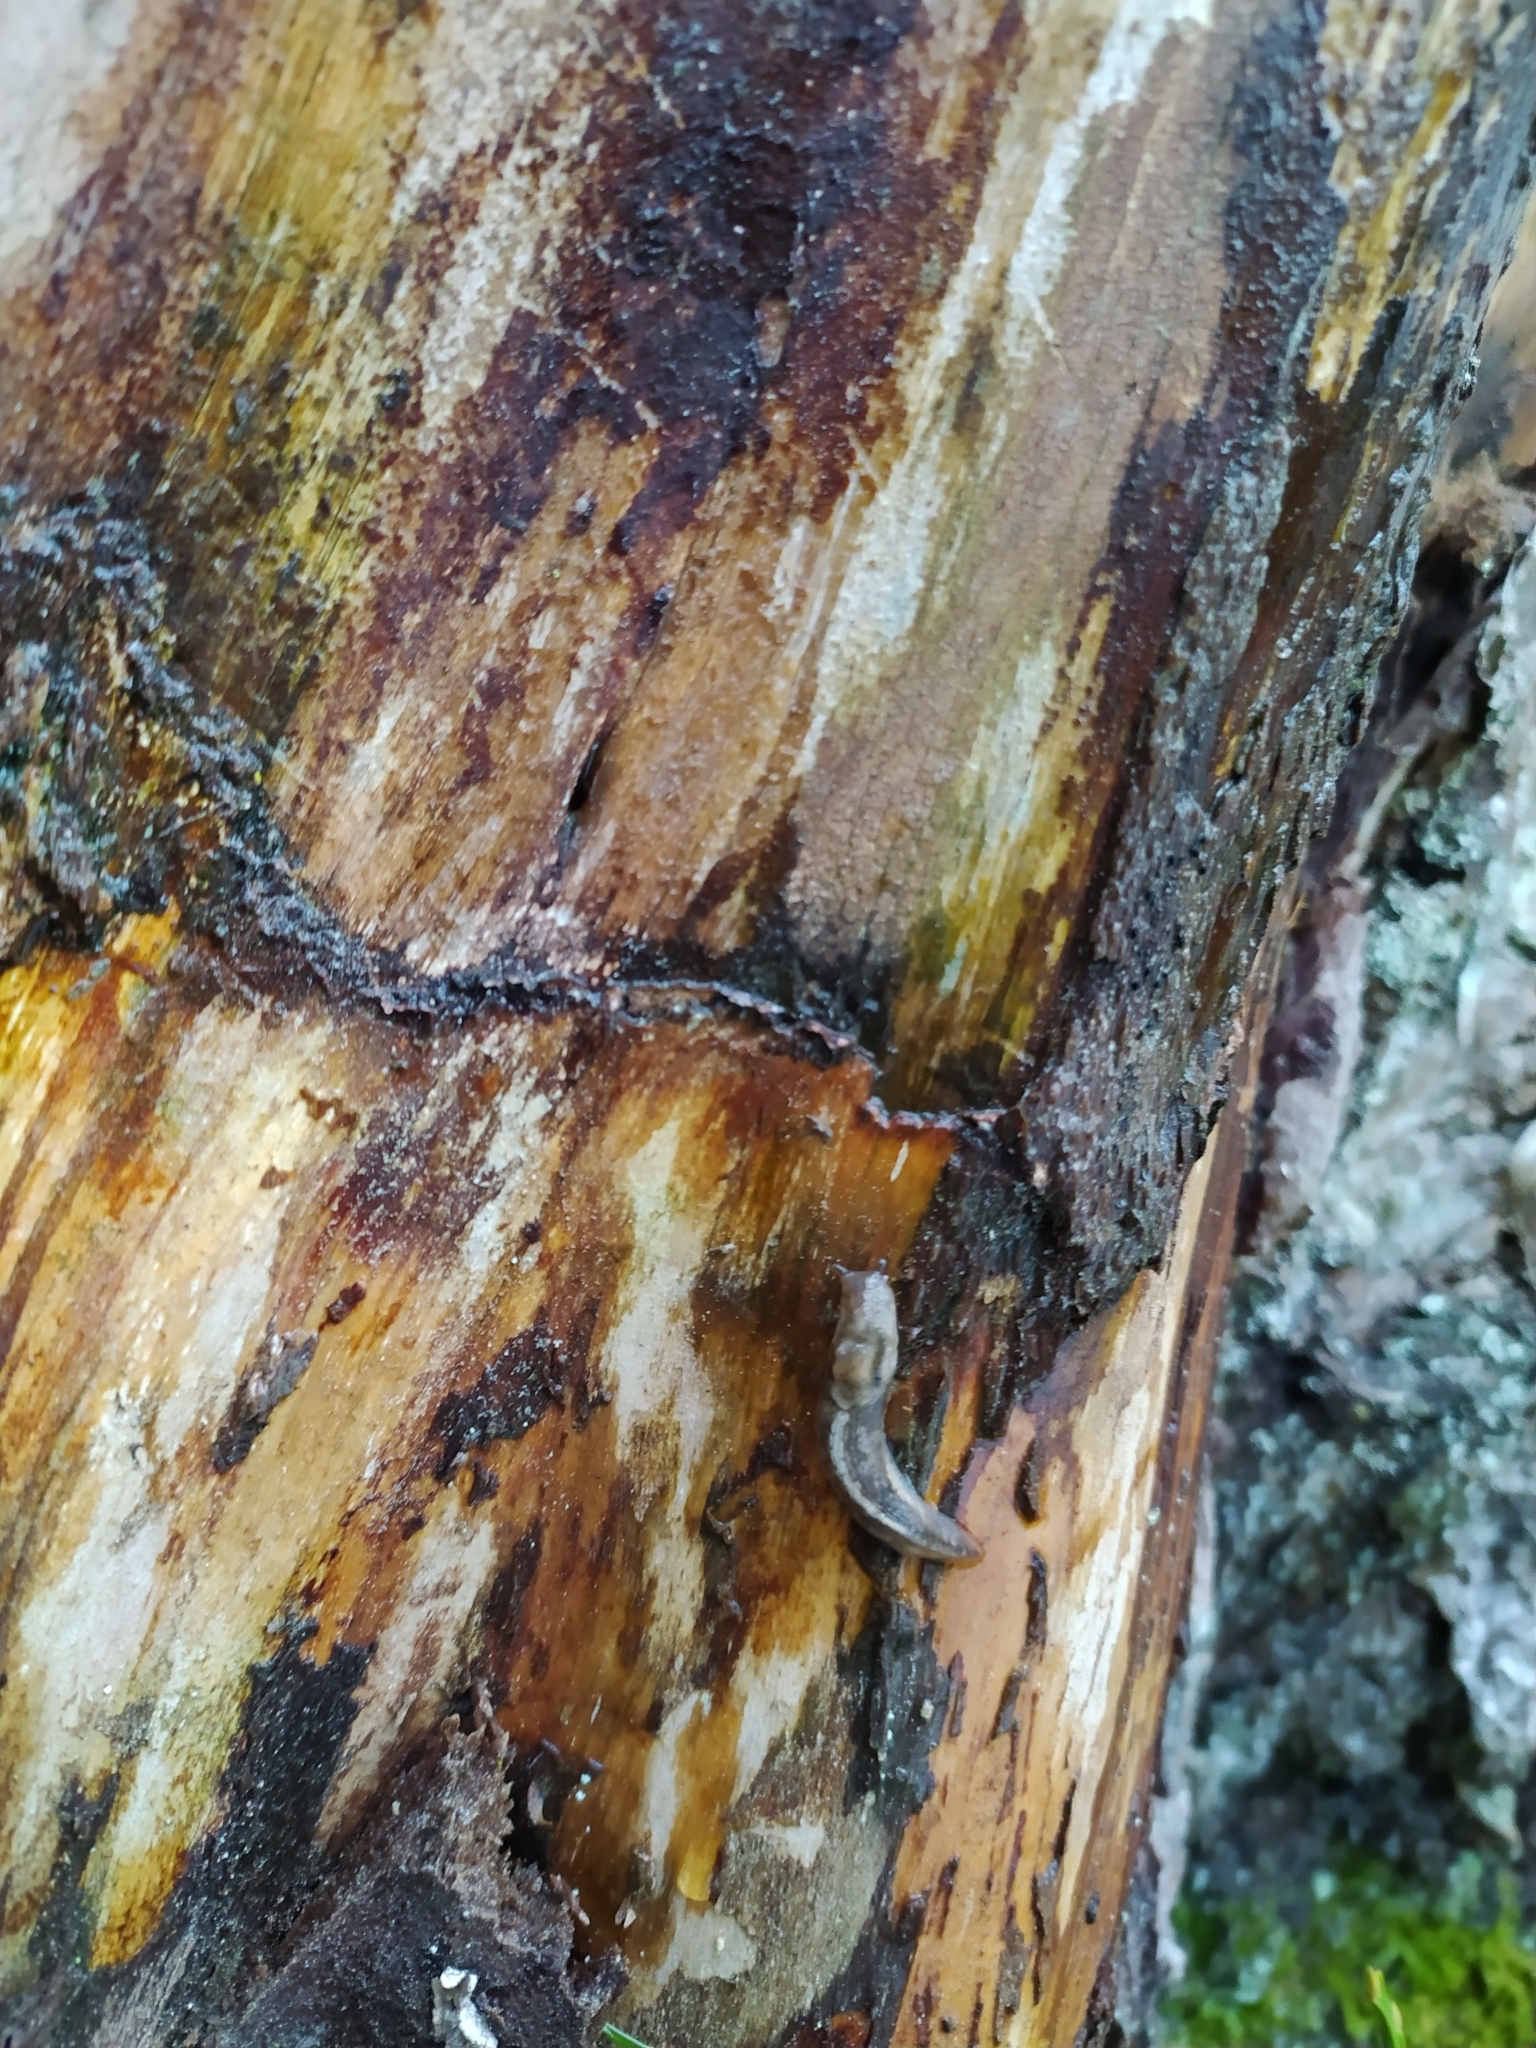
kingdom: Animalia
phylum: Mollusca
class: Gastropoda
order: Stylommatophora
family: Limacidae
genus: Lehmannia
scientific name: Lehmannia marginata
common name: Tree slug
